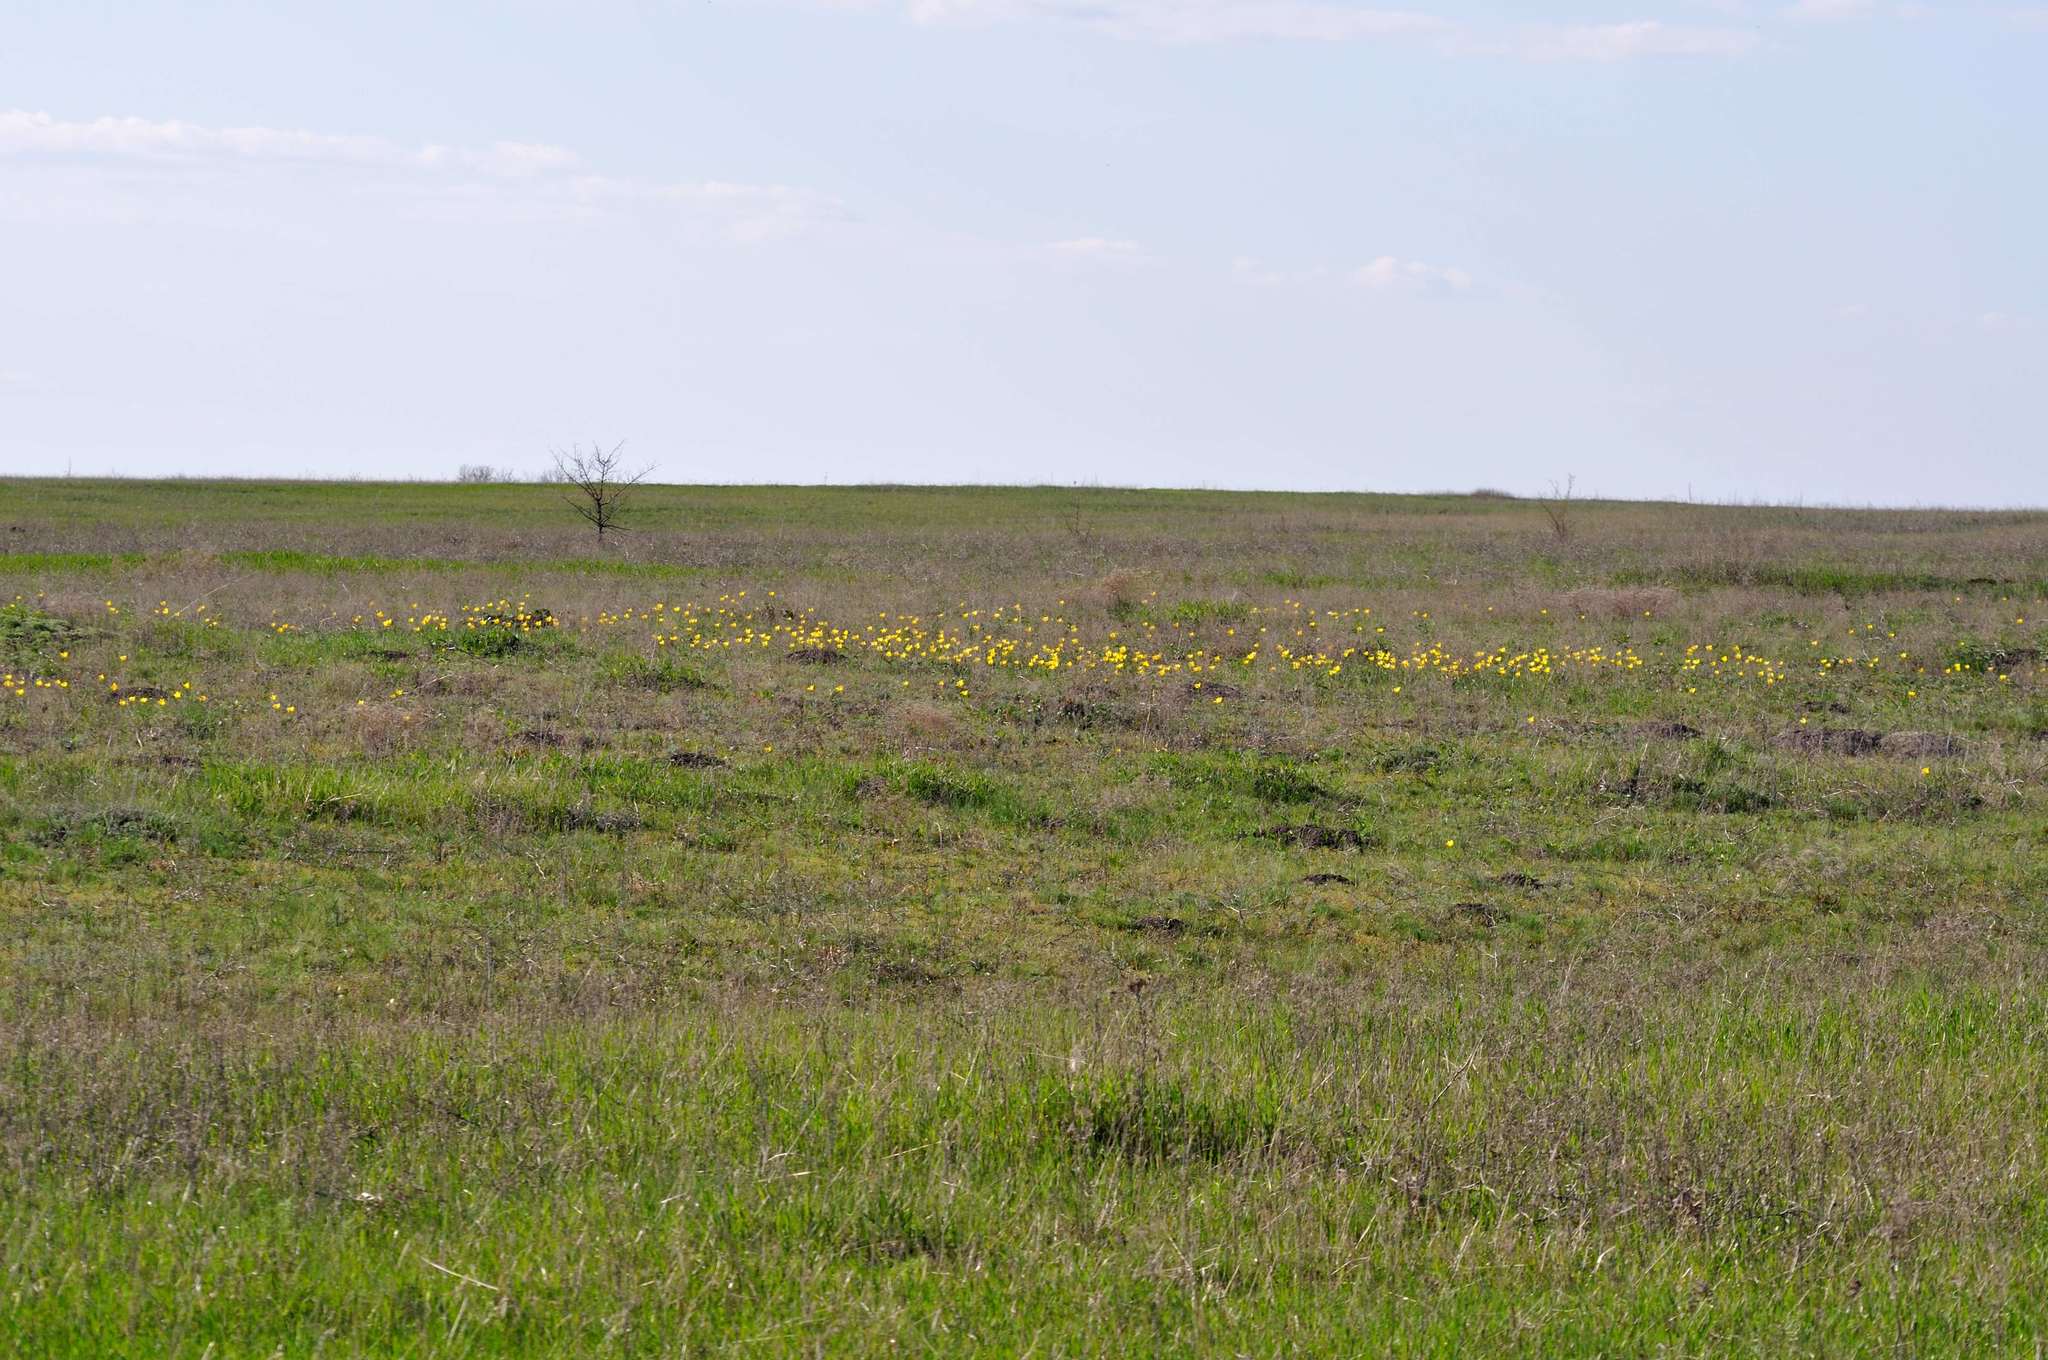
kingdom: Plantae
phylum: Tracheophyta
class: Liliopsida
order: Liliales
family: Liliaceae
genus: Tulipa
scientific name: Tulipa suaveolens
